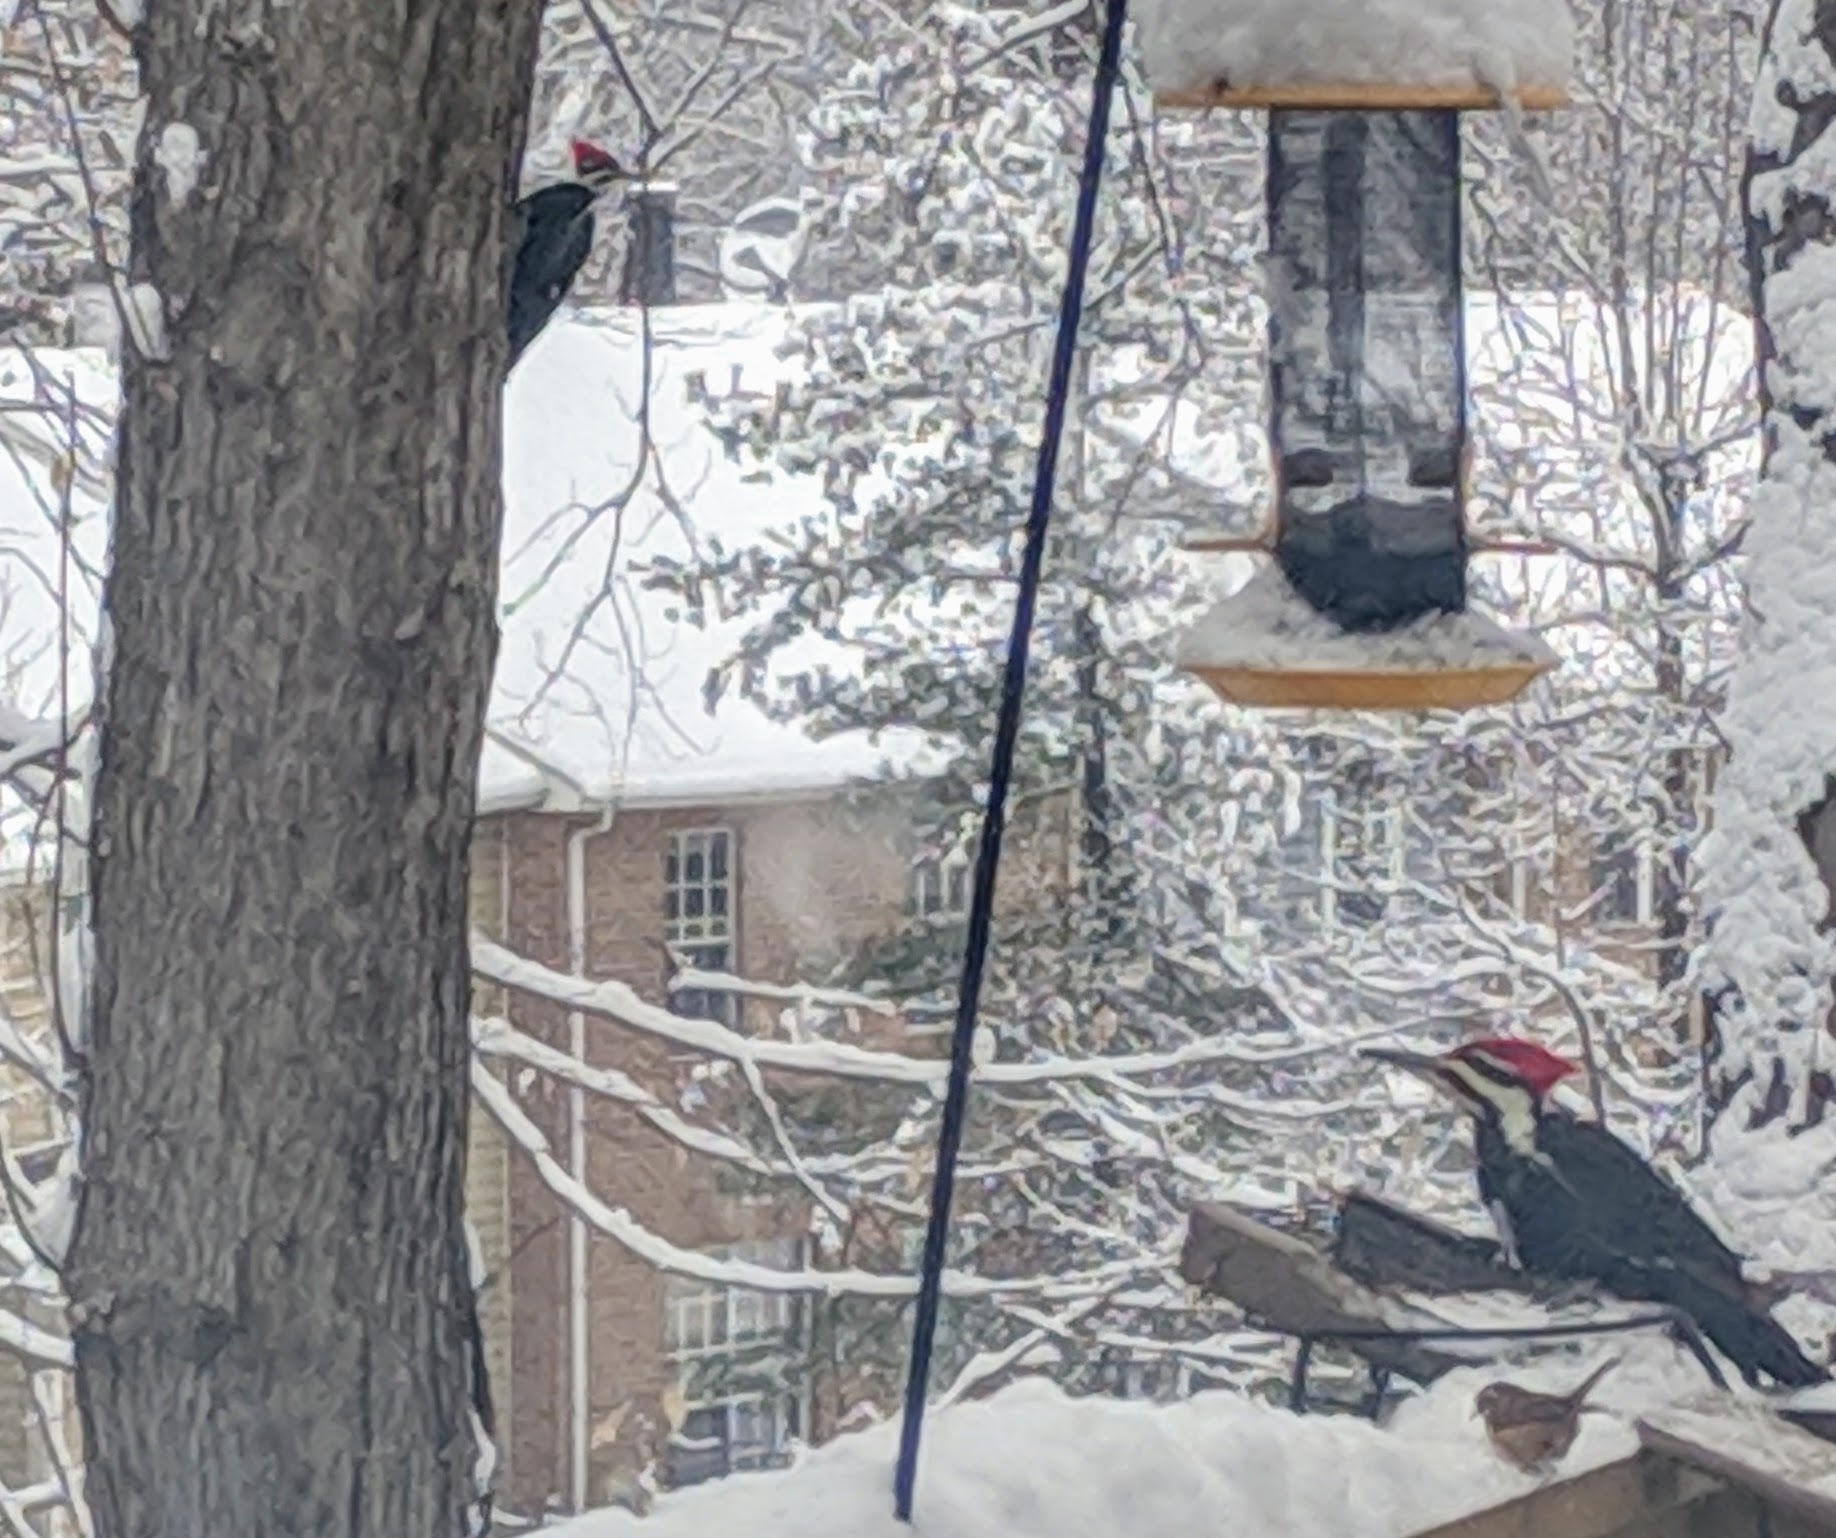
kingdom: Animalia
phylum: Chordata
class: Aves
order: Piciformes
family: Picidae
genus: Dryocopus
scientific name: Dryocopus pileatus
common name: Pileated woodpecker
